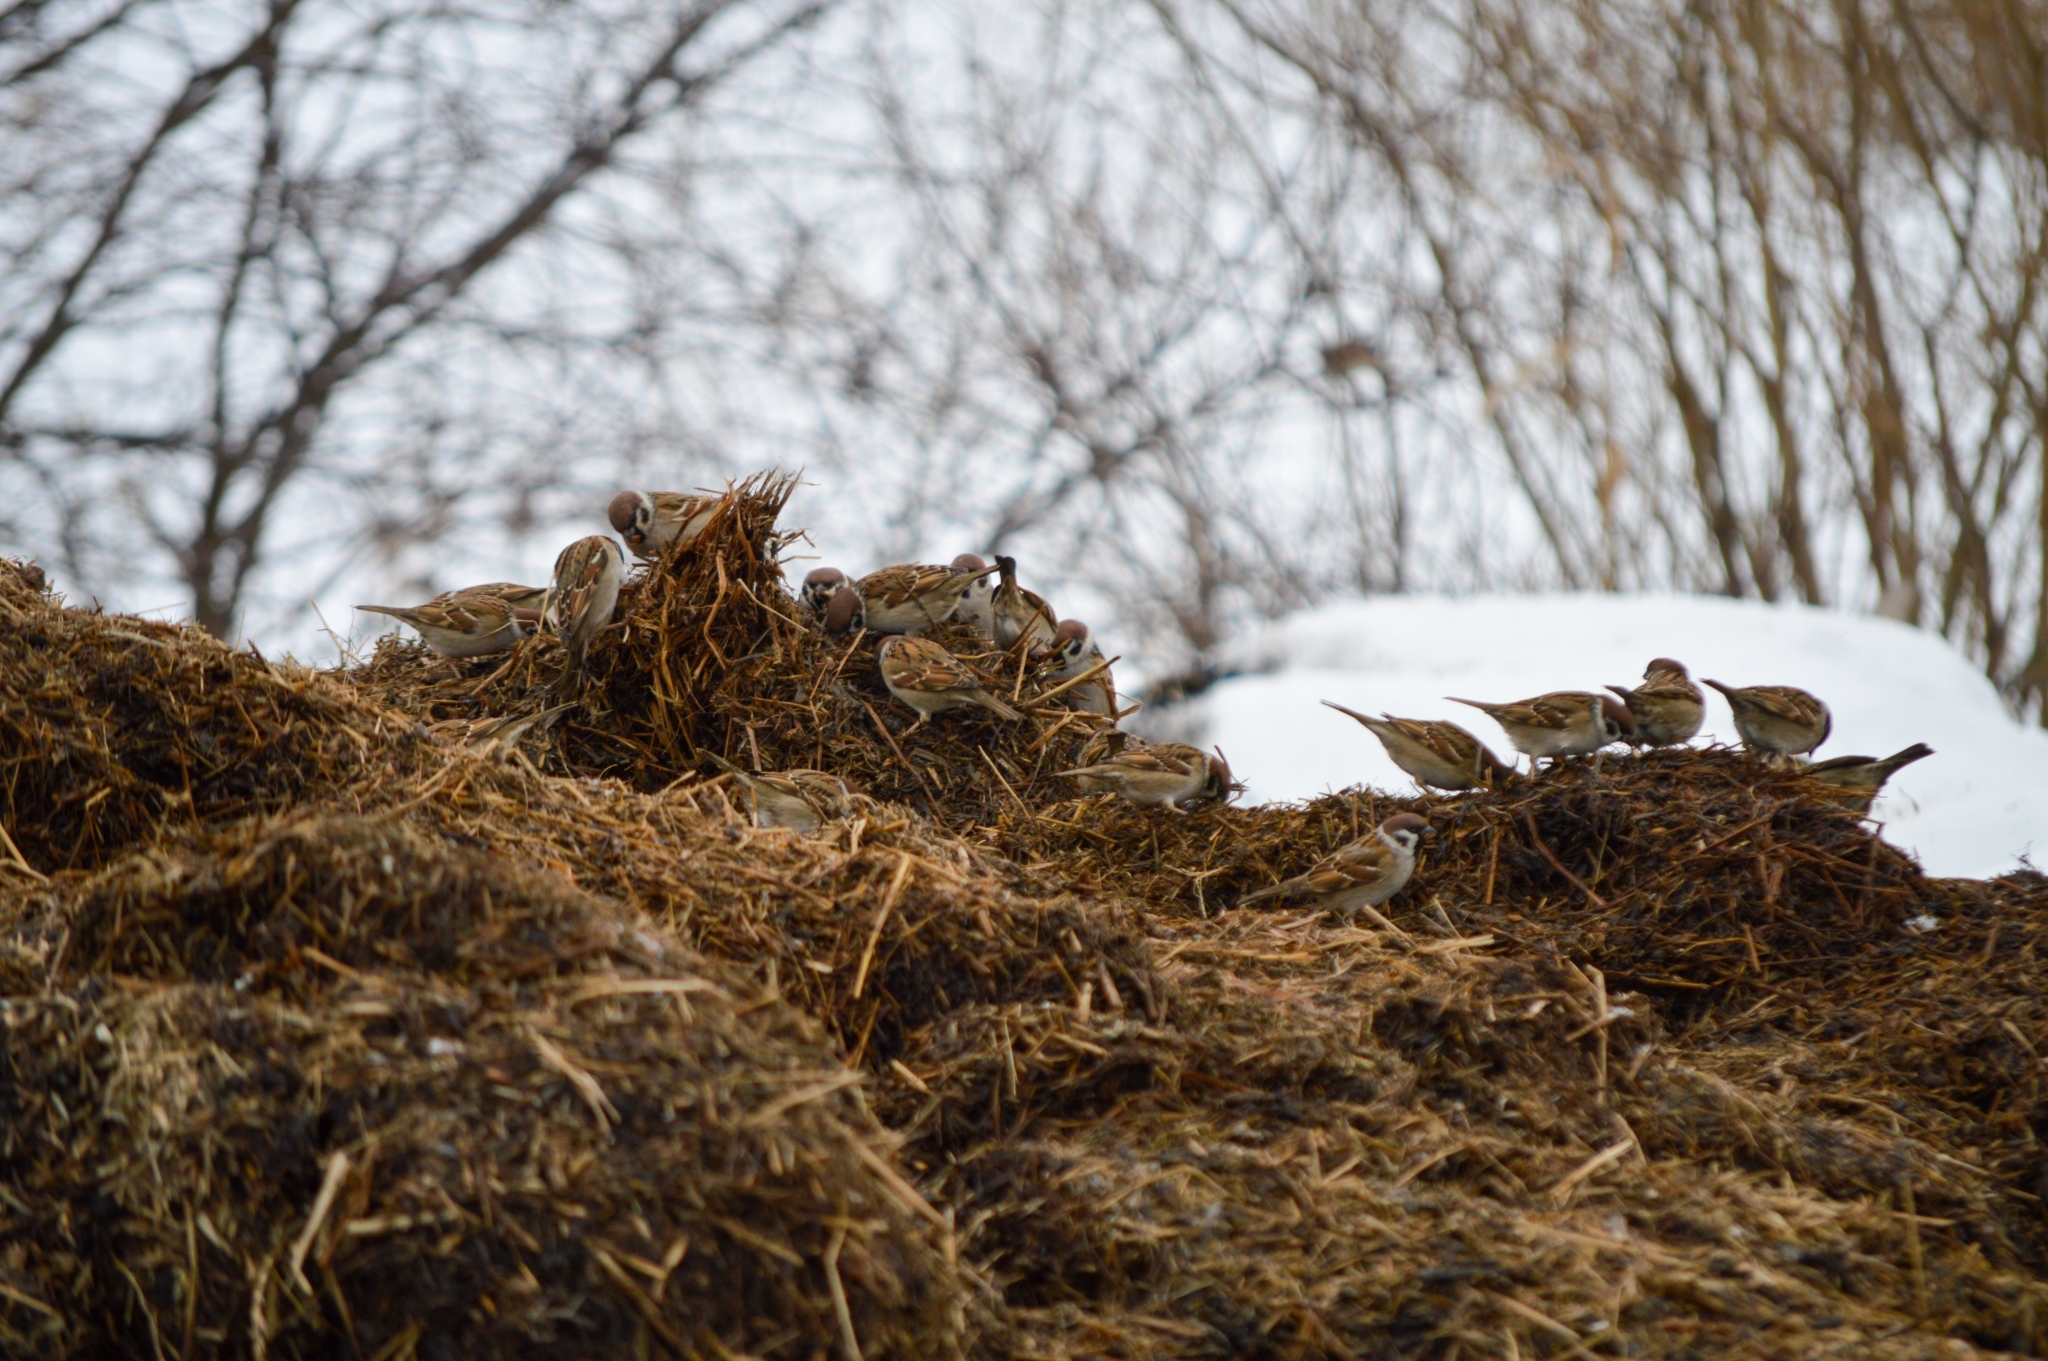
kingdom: Animalia
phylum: Chordata
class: Aves
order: Passeriformes
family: Passeridae
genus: Passer
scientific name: Passer montanus
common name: Eurasian tree sparrow
